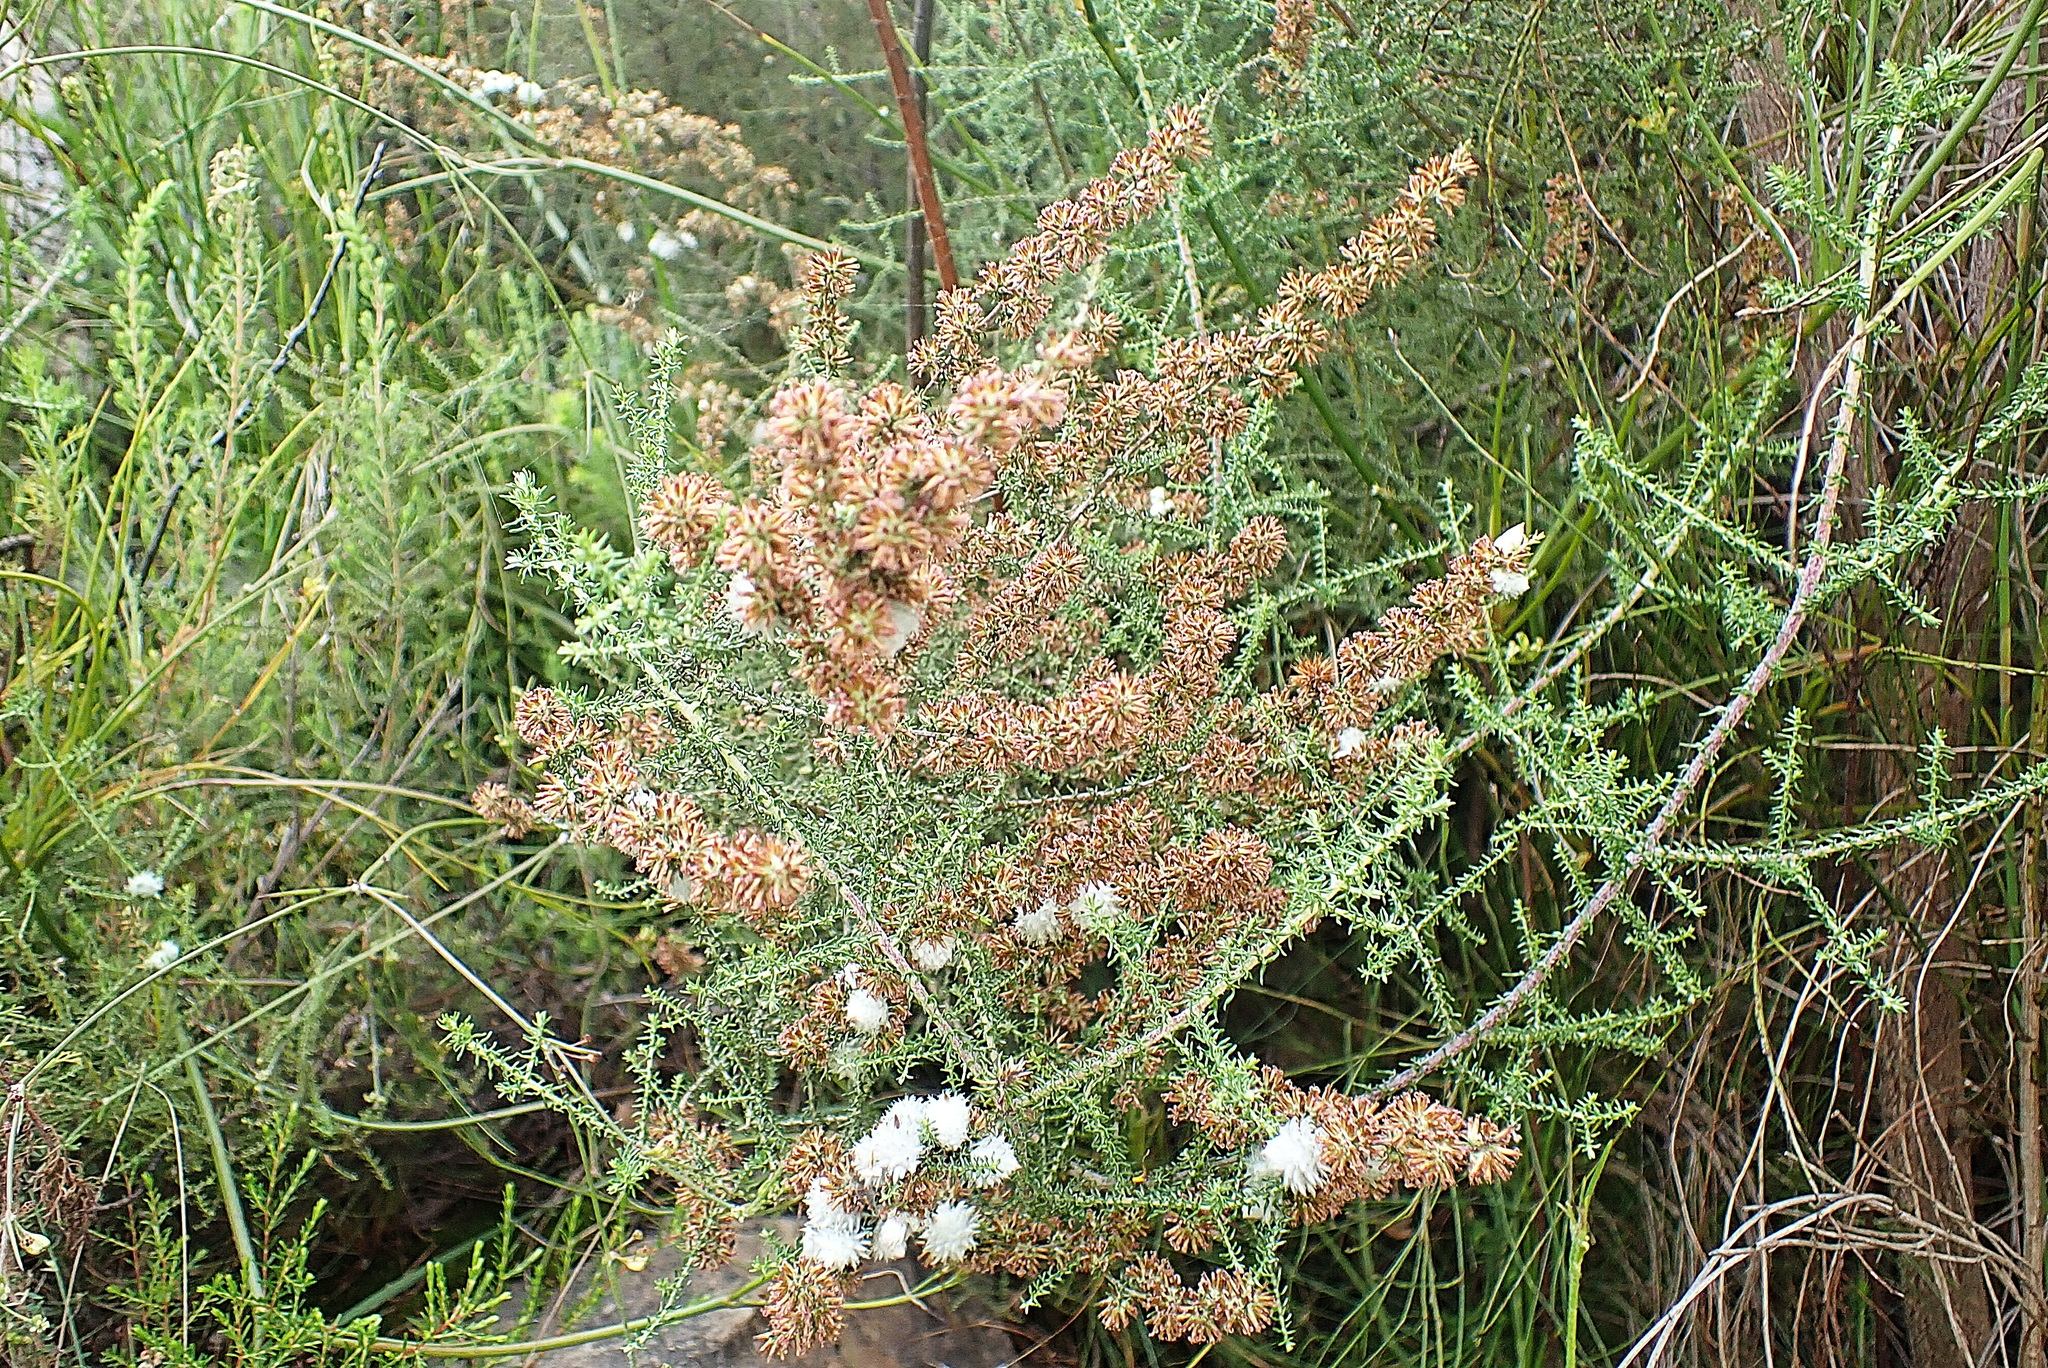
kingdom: Plantae
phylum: Tracheophyta
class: Magnoliopsida
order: Asterales
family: Asteraceae
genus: Seriphium
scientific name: Seriphium plumosum
